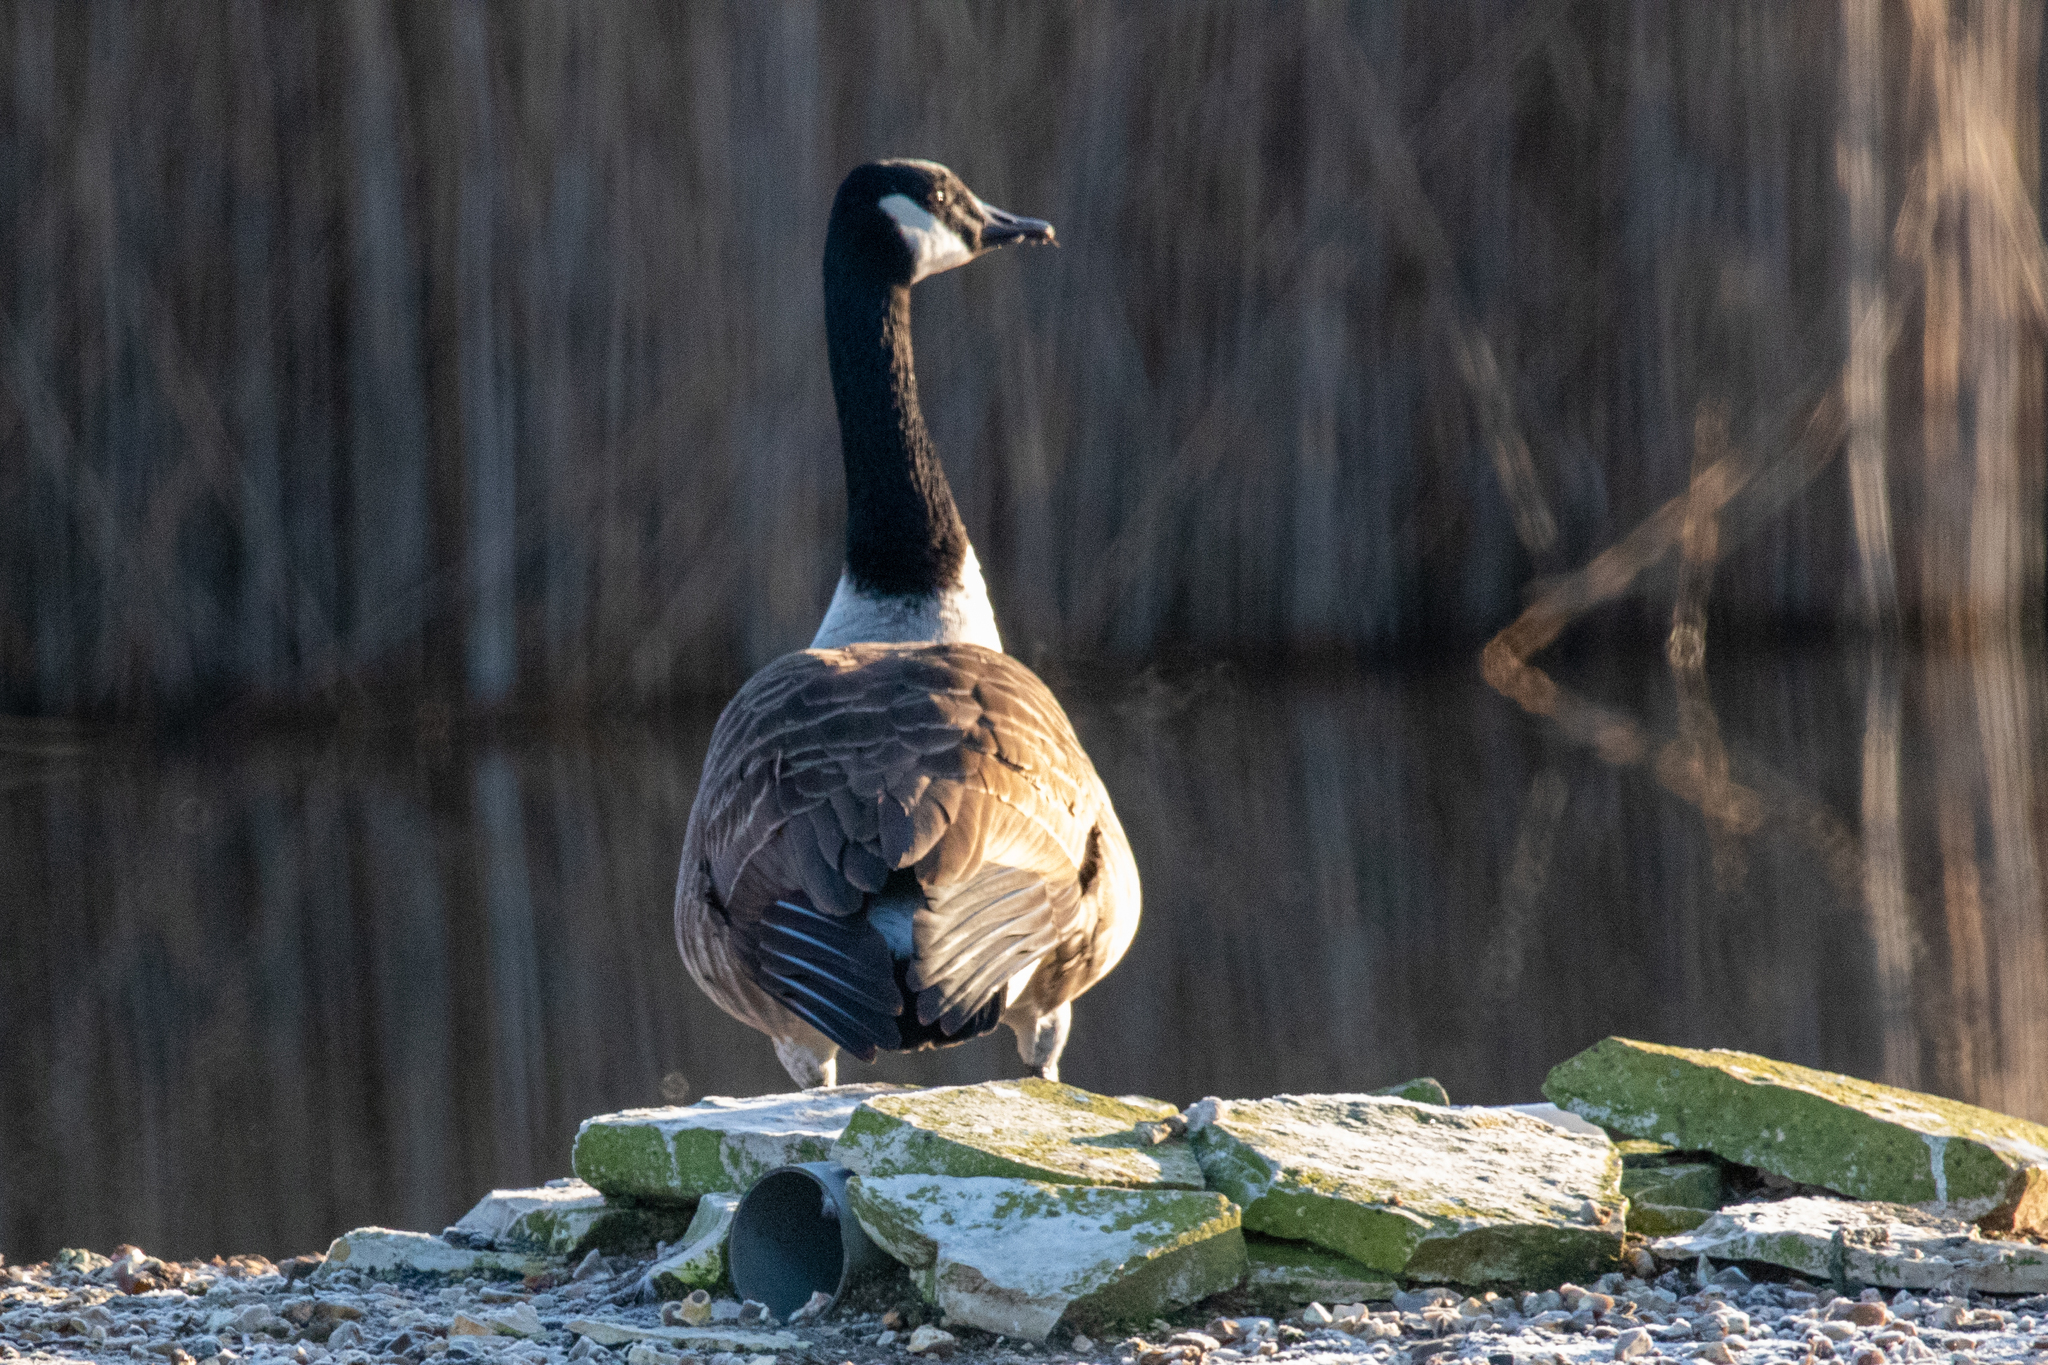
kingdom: Animalia
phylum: Chordata
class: Aves
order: Anseriformes
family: Anatidae
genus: Branta
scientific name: Branta canadensis
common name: Canada goose
